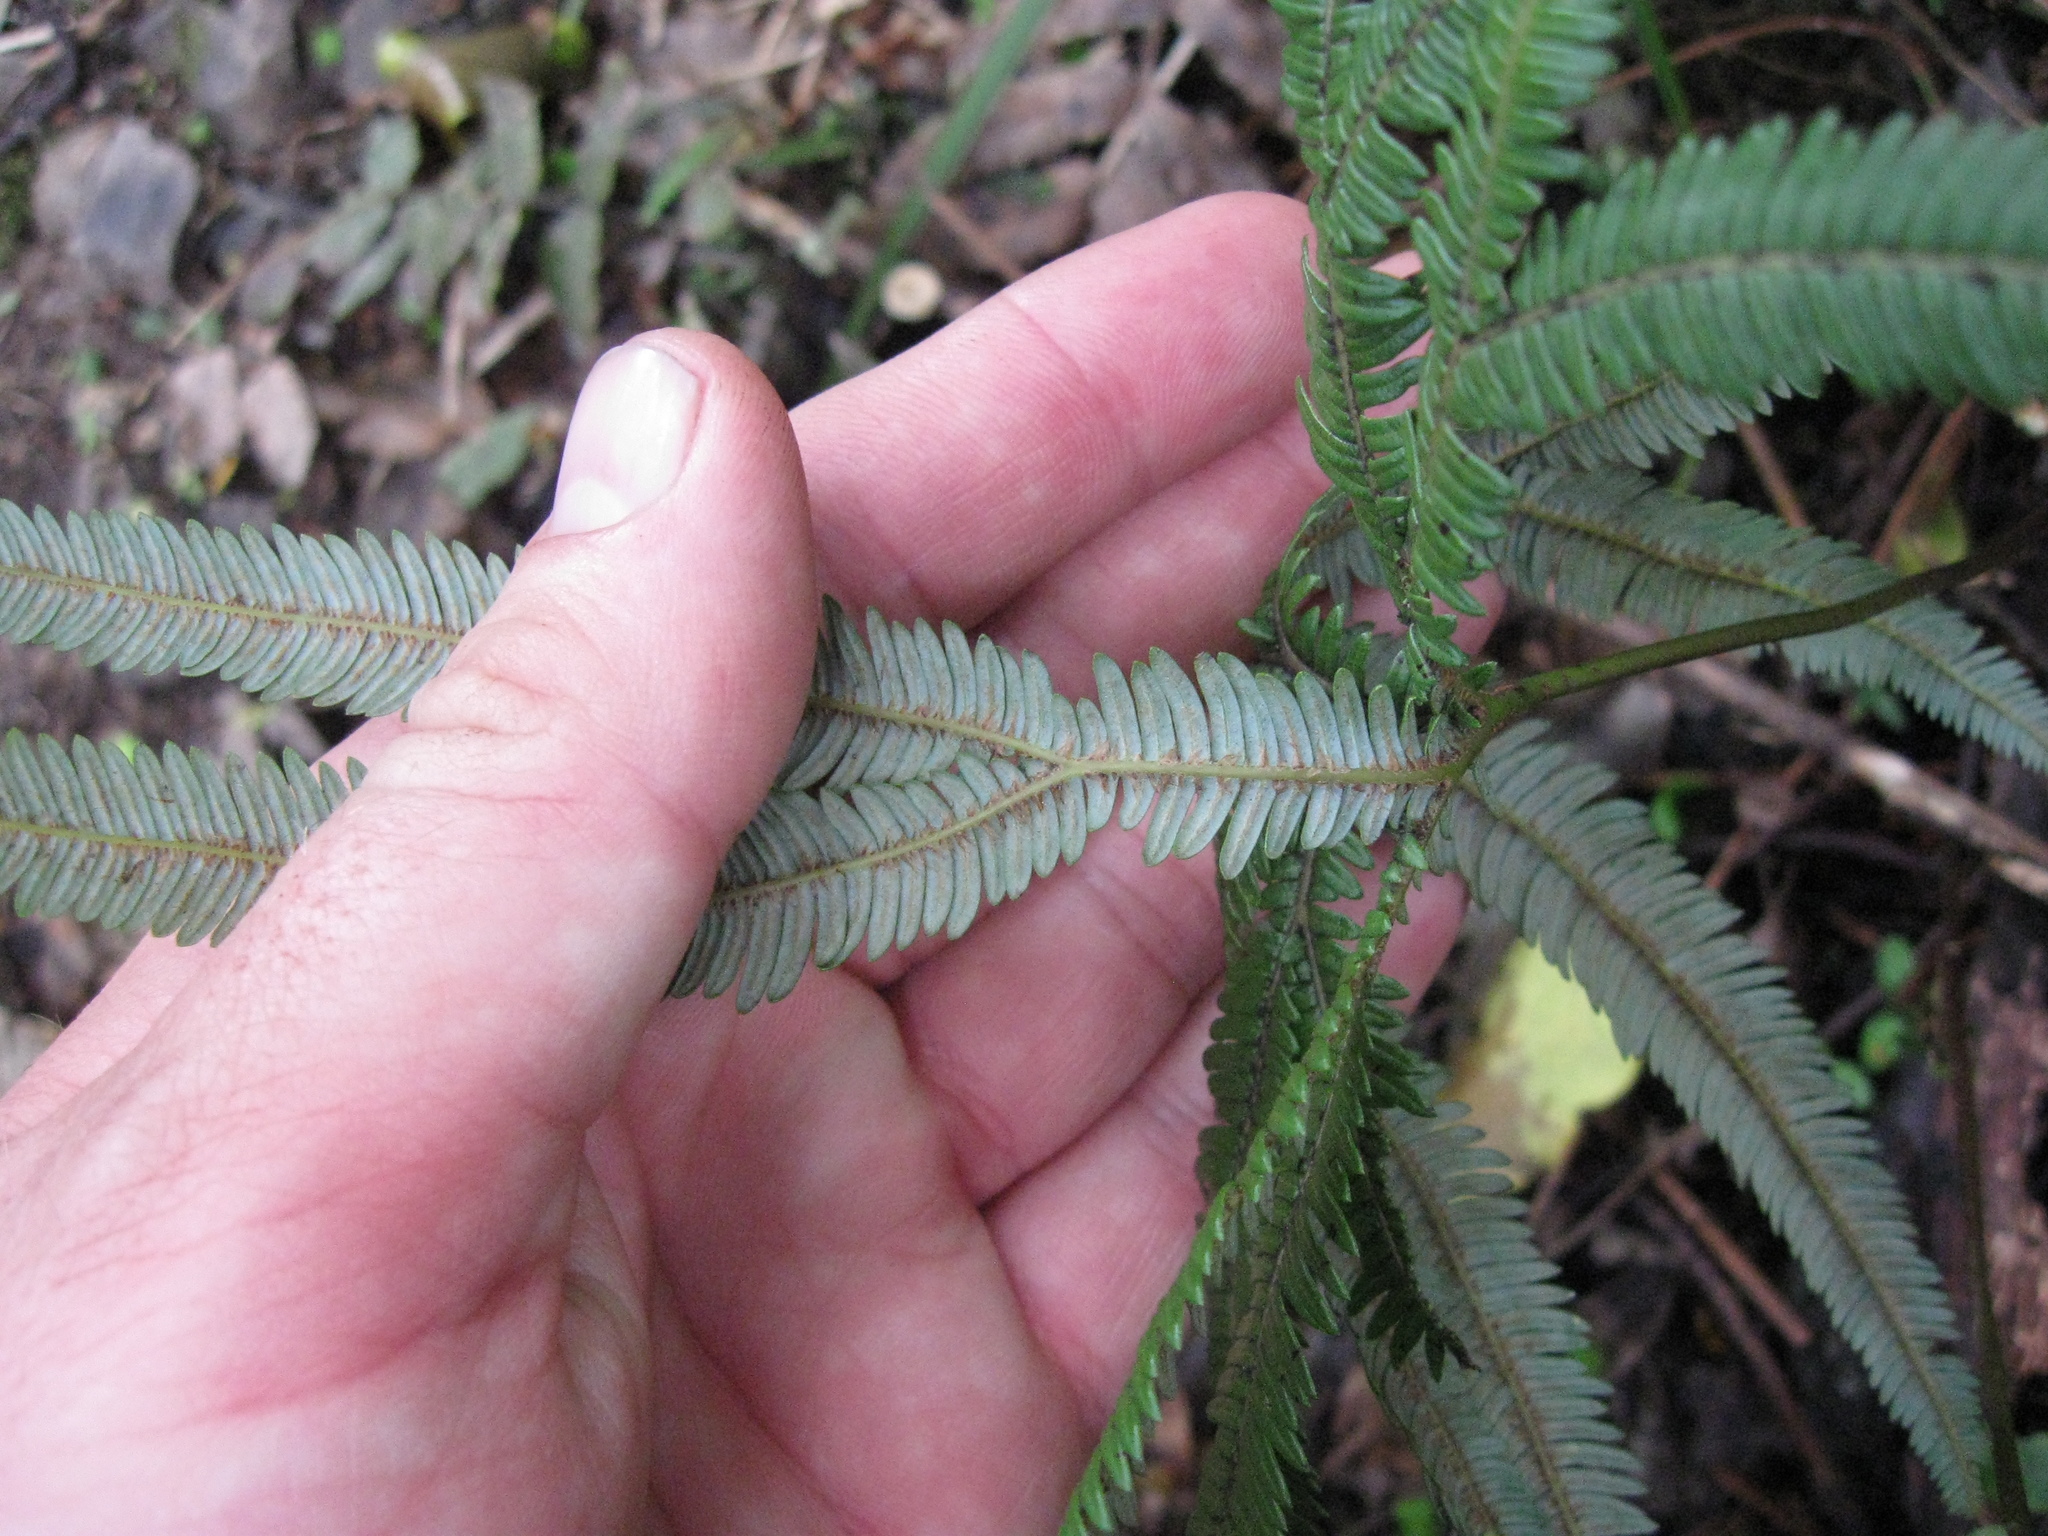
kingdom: Plantae
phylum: Tracheophyta
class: Polypodiopsida
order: Gleicheniales
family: Gleicheniaceae
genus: Sticherus
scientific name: Sticherus cunninghamii
